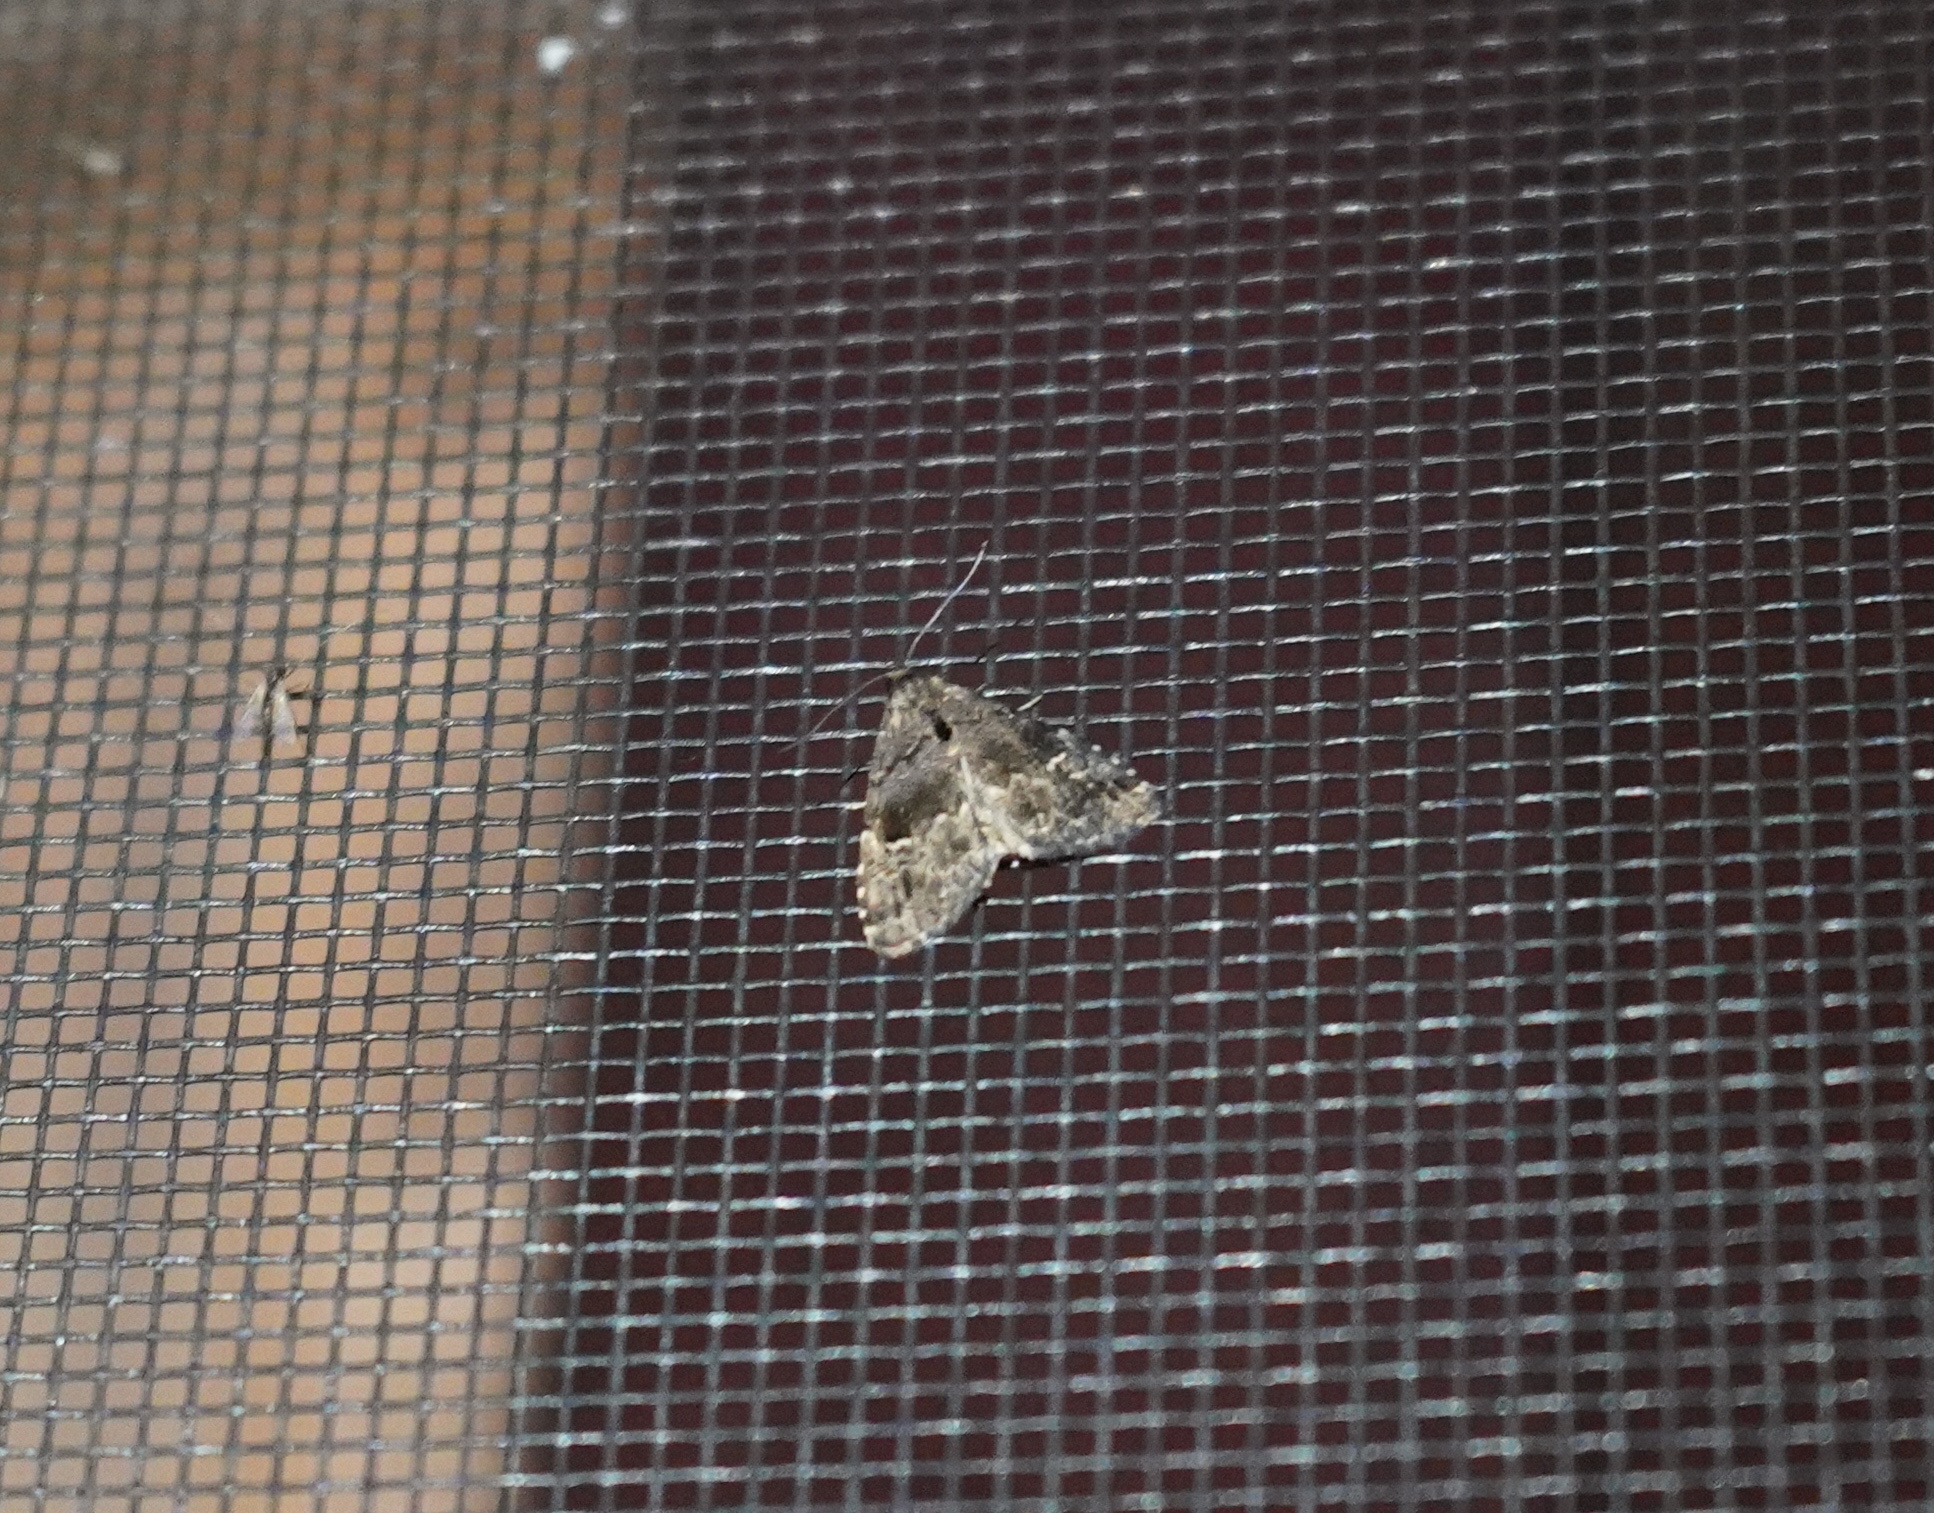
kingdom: Animalia
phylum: Arthropoda
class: Insecta
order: Lepidoptera
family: Erebidae
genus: Dyspyralis
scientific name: Dyspyralis nigellus
